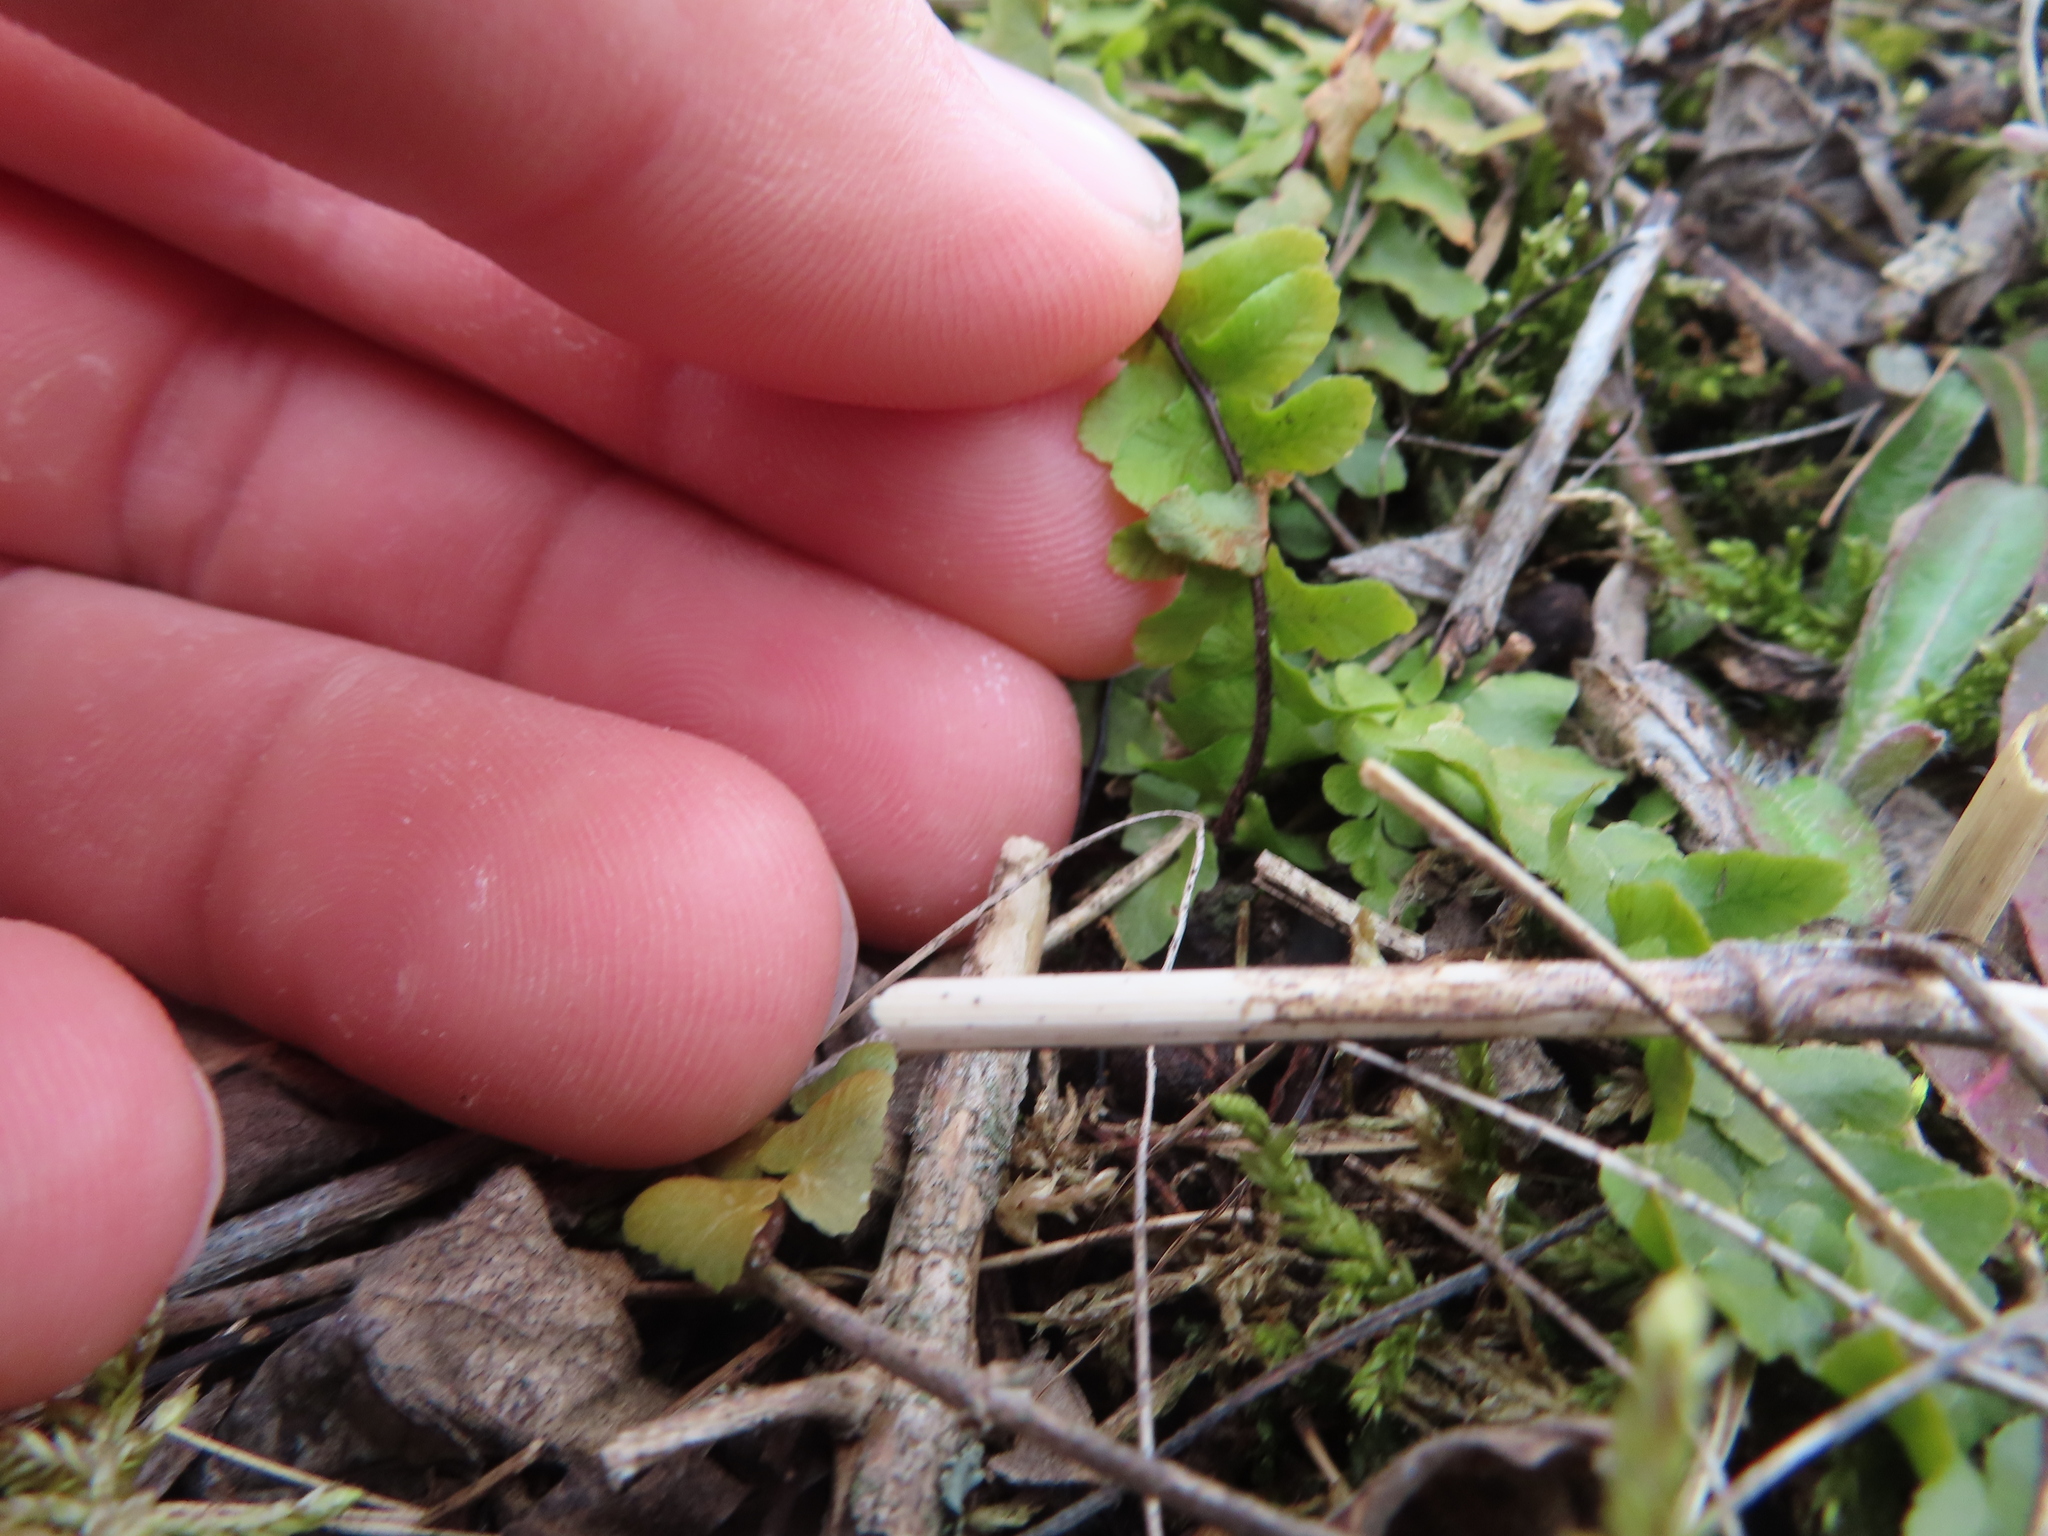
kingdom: Plantae
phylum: Tracheophyta
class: Polypodiopsida
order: Polypodiales
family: Aspleniaceae
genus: Asplenium
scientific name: Asplenium platyneuron
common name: Ebony spleenwort
